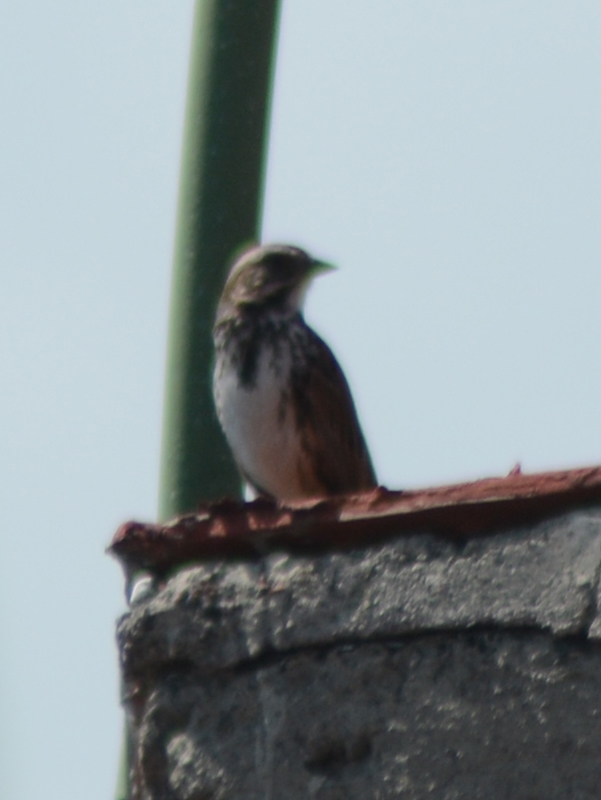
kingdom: Animalia
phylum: Chordata
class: Aves
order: Passeriformes
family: Passerellidae
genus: Melospiza
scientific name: Melospiza melodia
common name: Song sparrow
